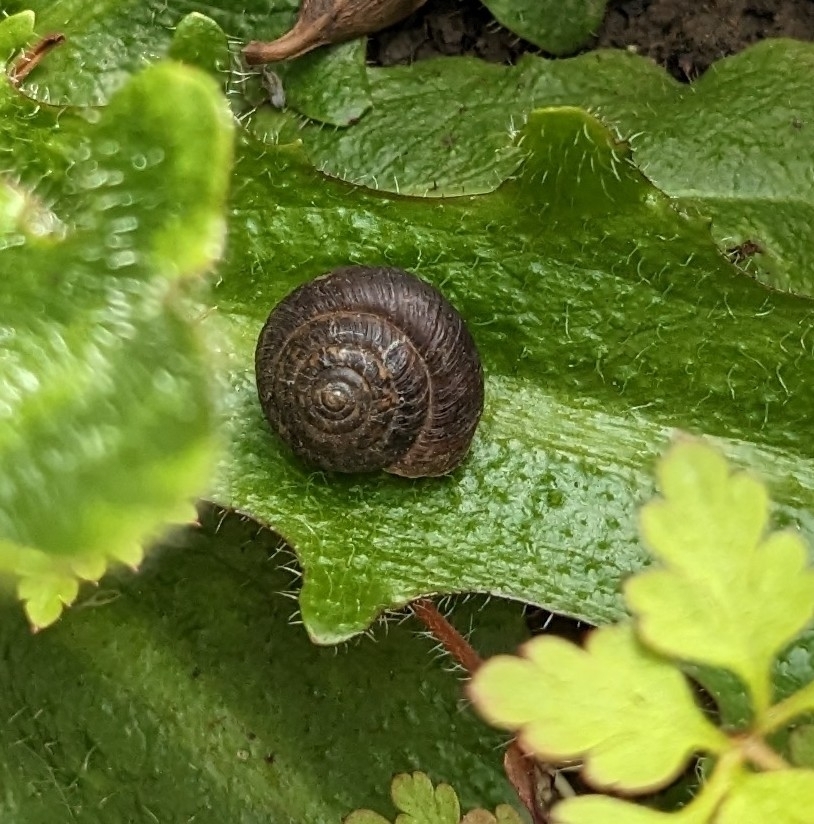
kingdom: Animalia
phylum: Mollusca
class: Gastropoda
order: Stylommatophora
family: Hygromiidae
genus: Trochulus
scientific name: Trochulus striolatus
